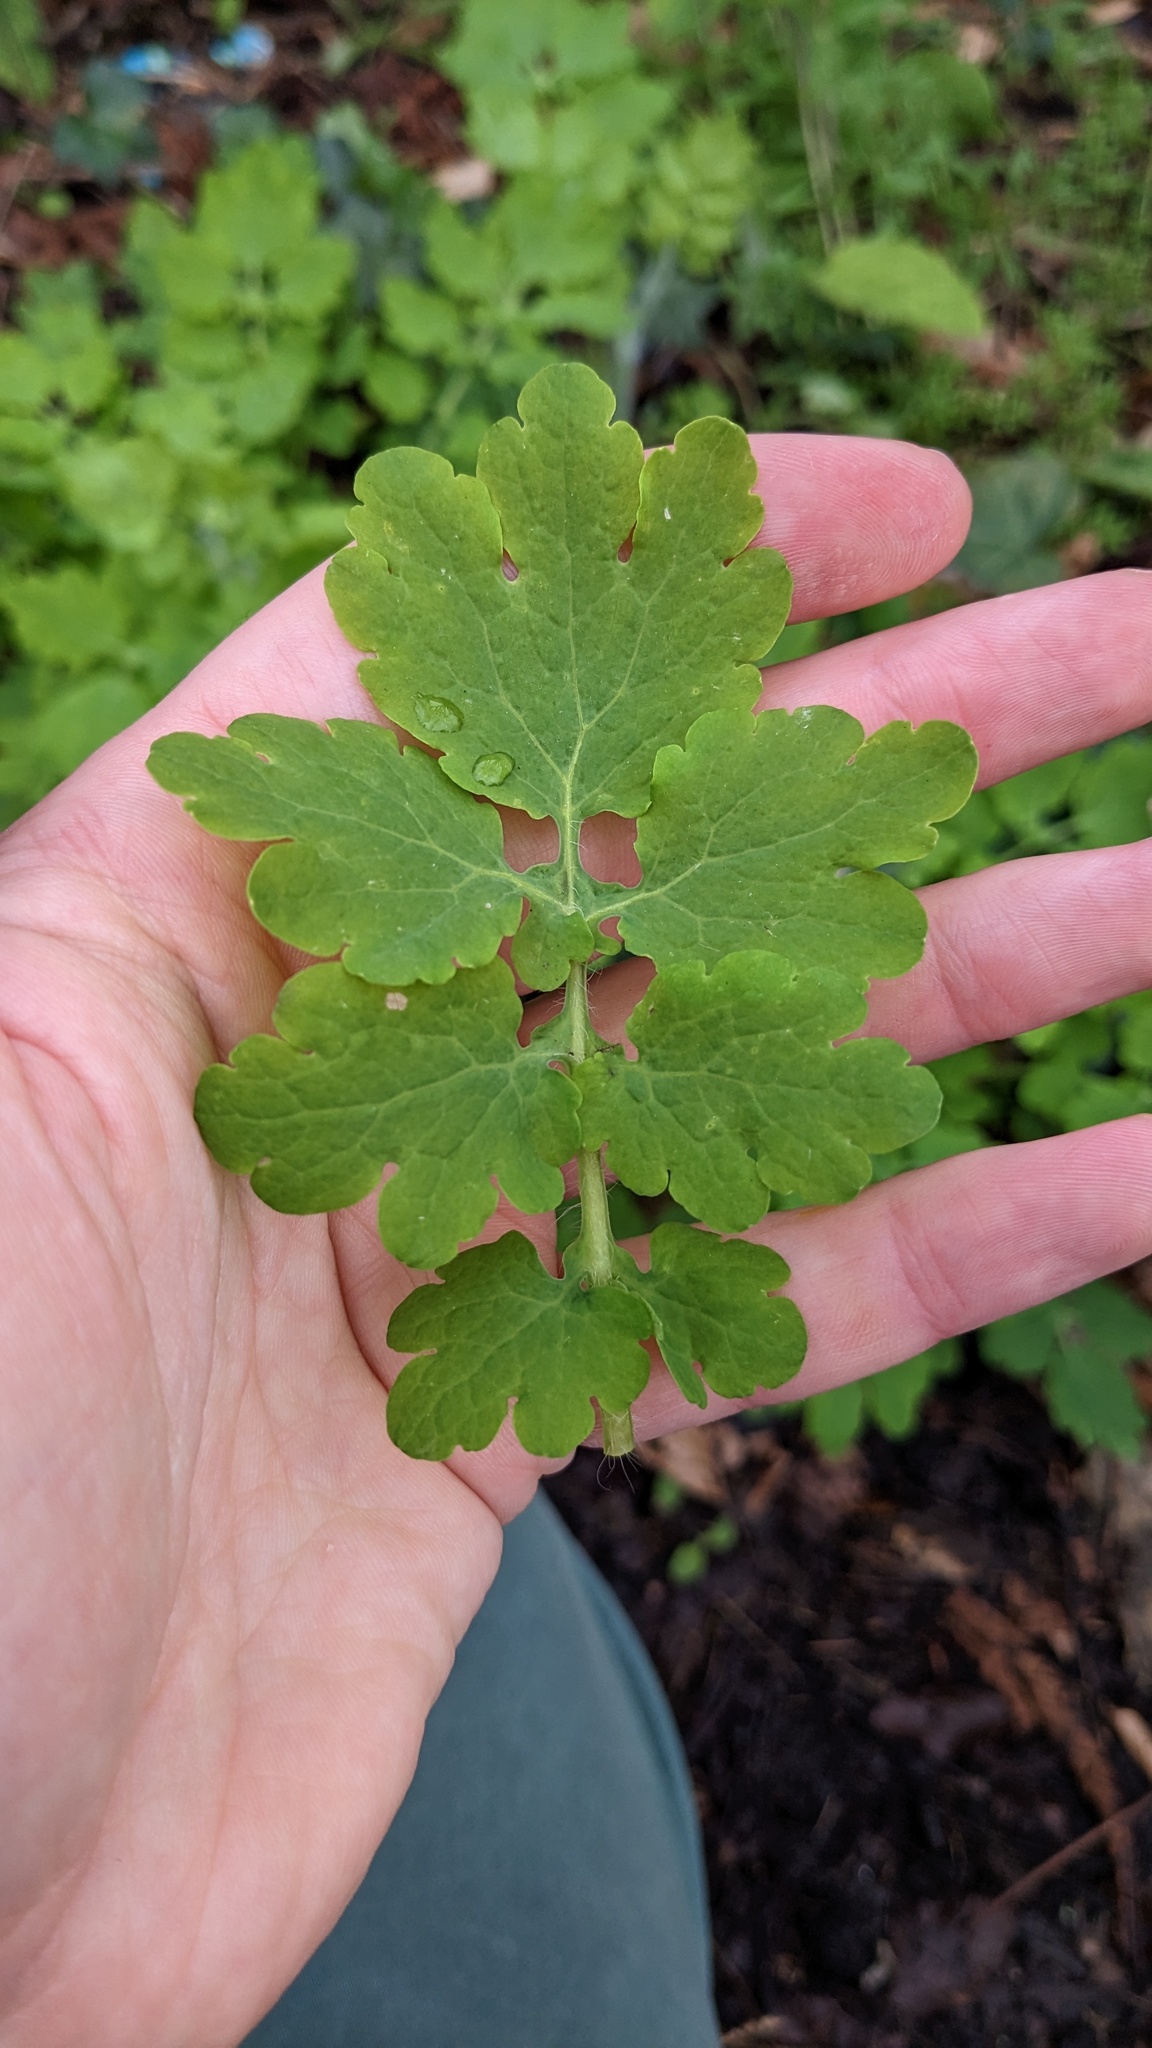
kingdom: Plantae
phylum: Tracheophyta
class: Magnoliopsida
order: Ranunculales
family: Papaveraceae
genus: Chelidonium
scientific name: Chelidonium majus
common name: Greater celandine
